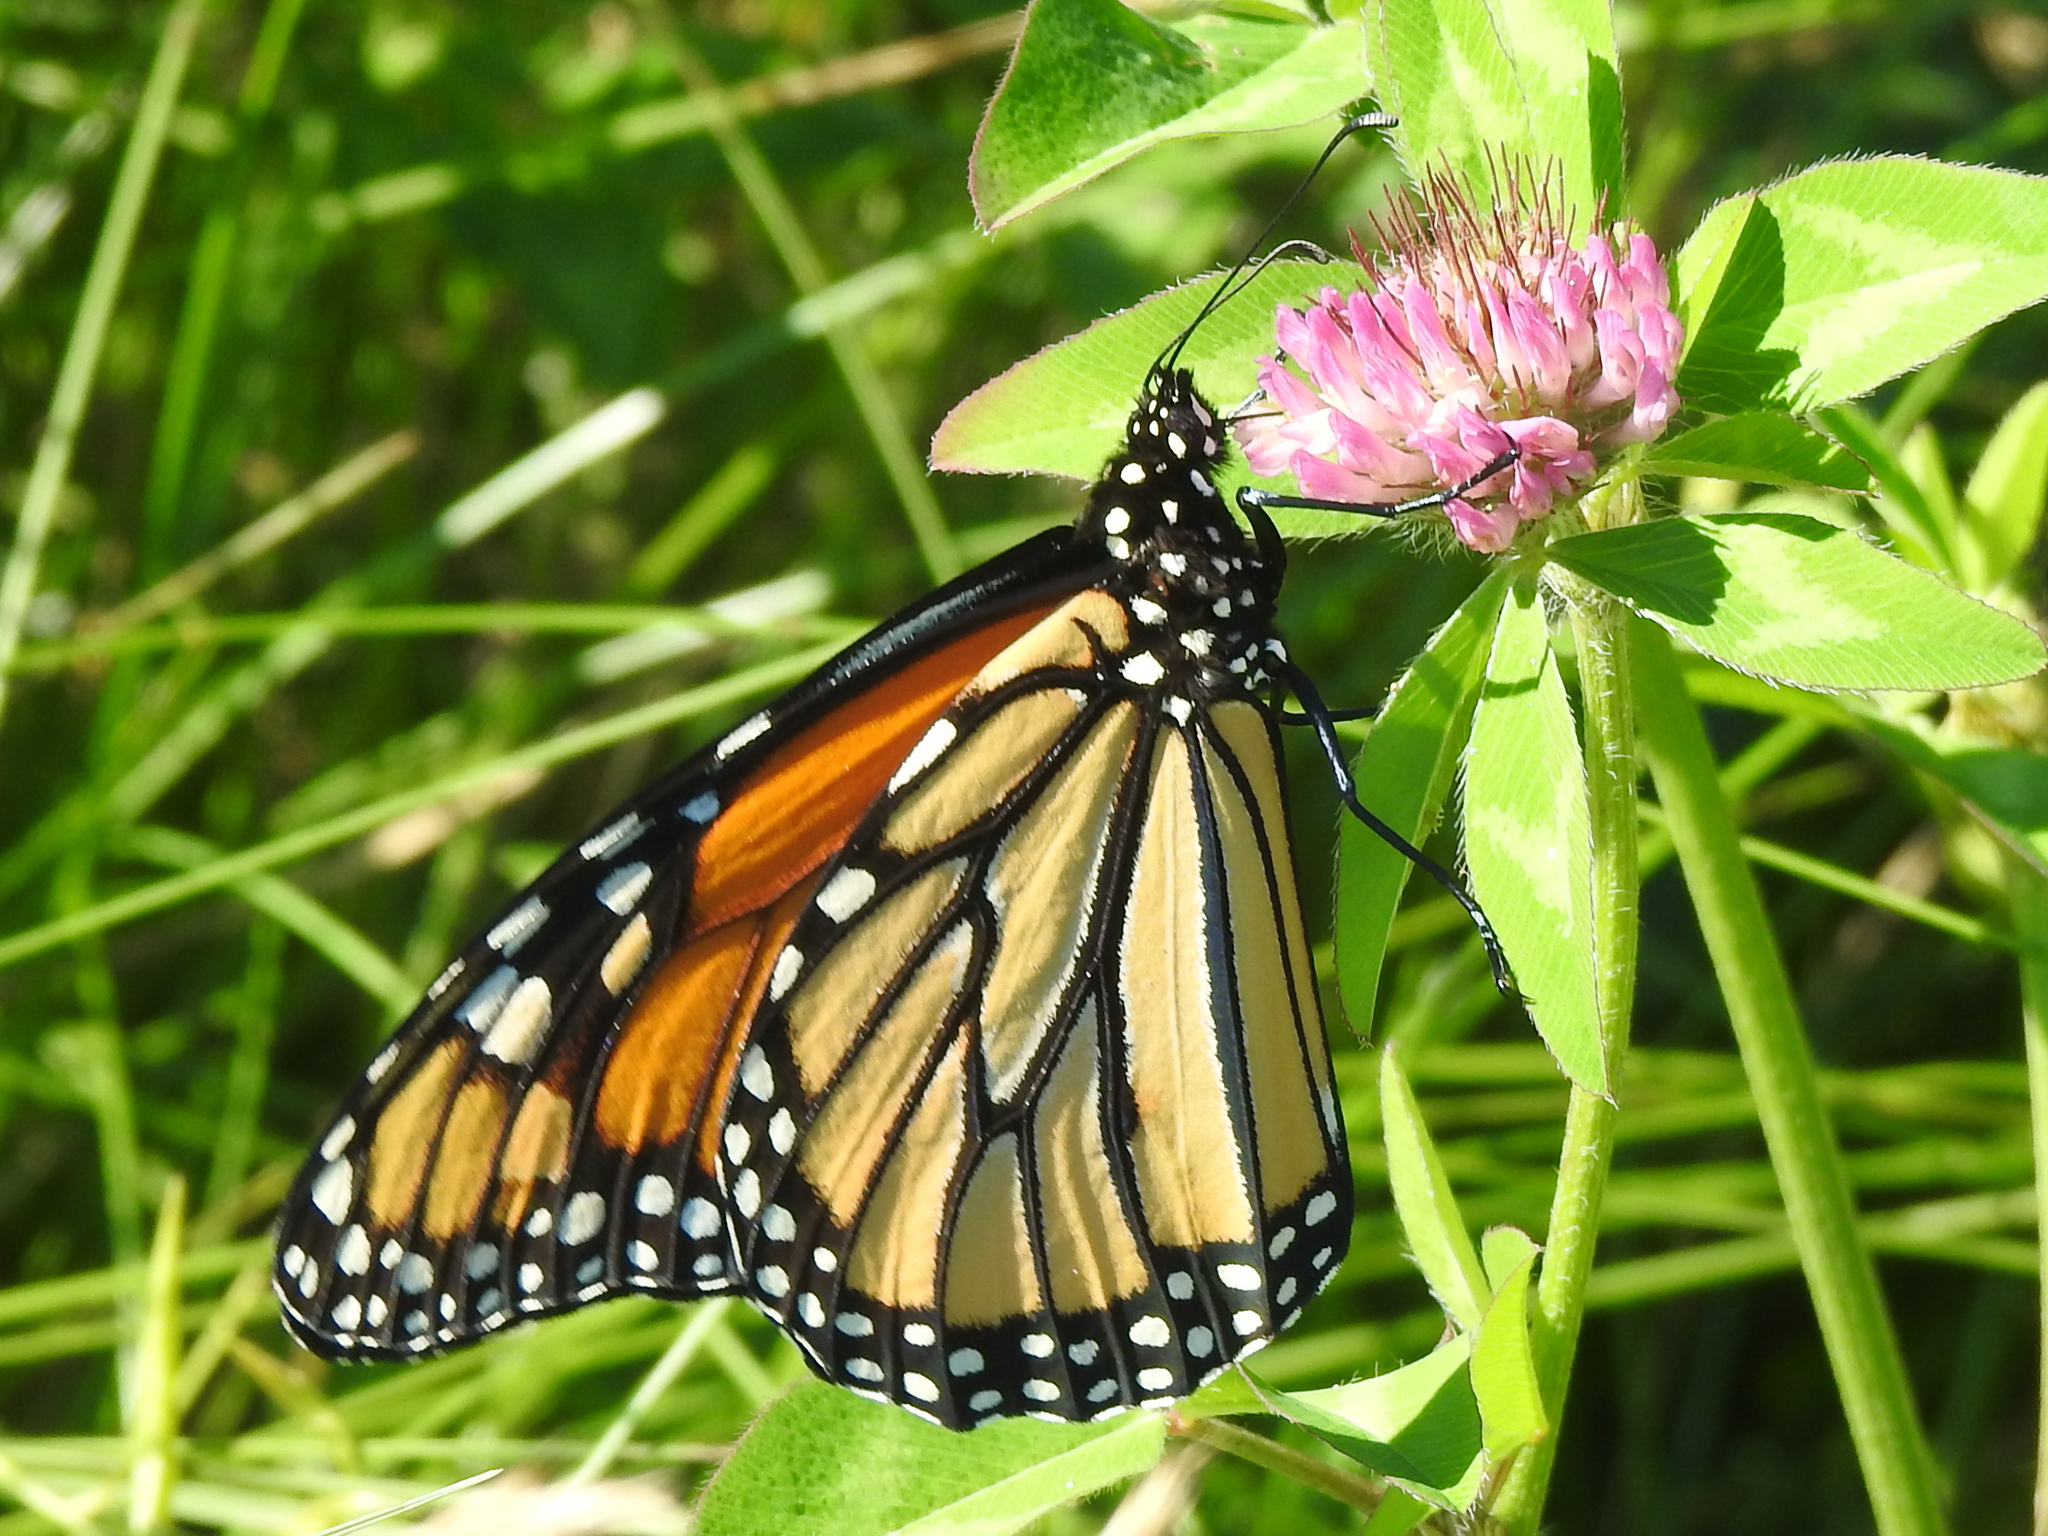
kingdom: Animalia
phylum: Arthropoda
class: Insecta
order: Lepidoptera
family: Nymphalidae
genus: Danaus
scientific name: Danaus plexippus
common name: Monarch
